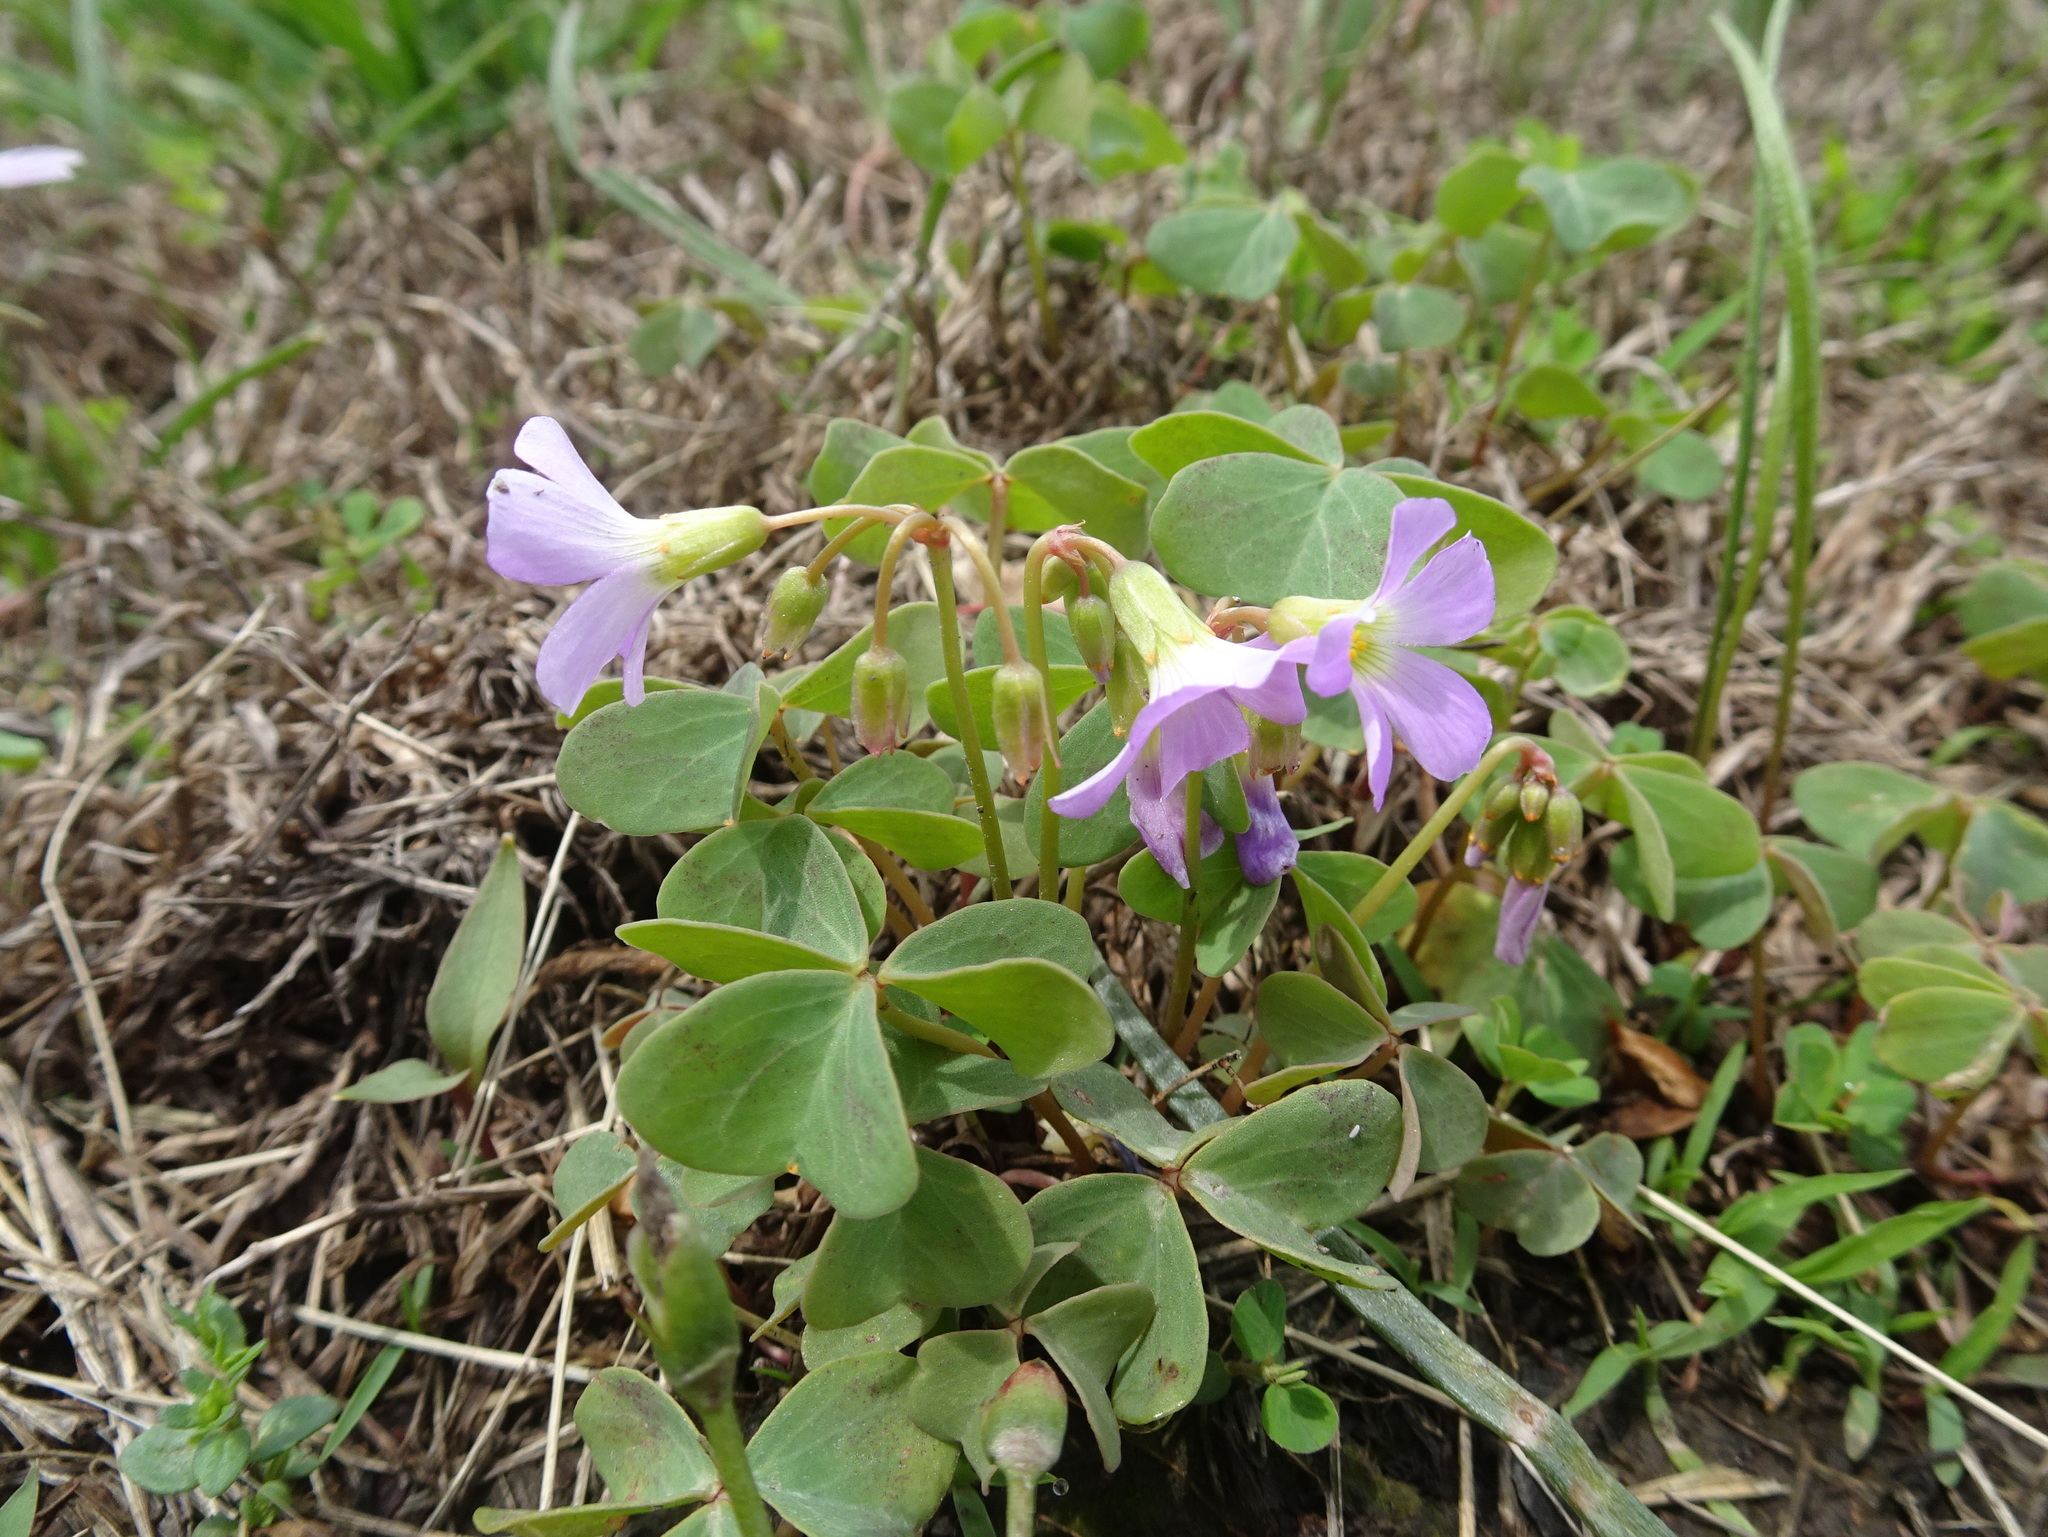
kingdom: Plantae
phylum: Tracheophyta
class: Magnoliopsida
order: Oxalidales
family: Oxalidaceae
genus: Oxalis
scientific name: Oxalis violacea
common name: Violet wood-sorrel
